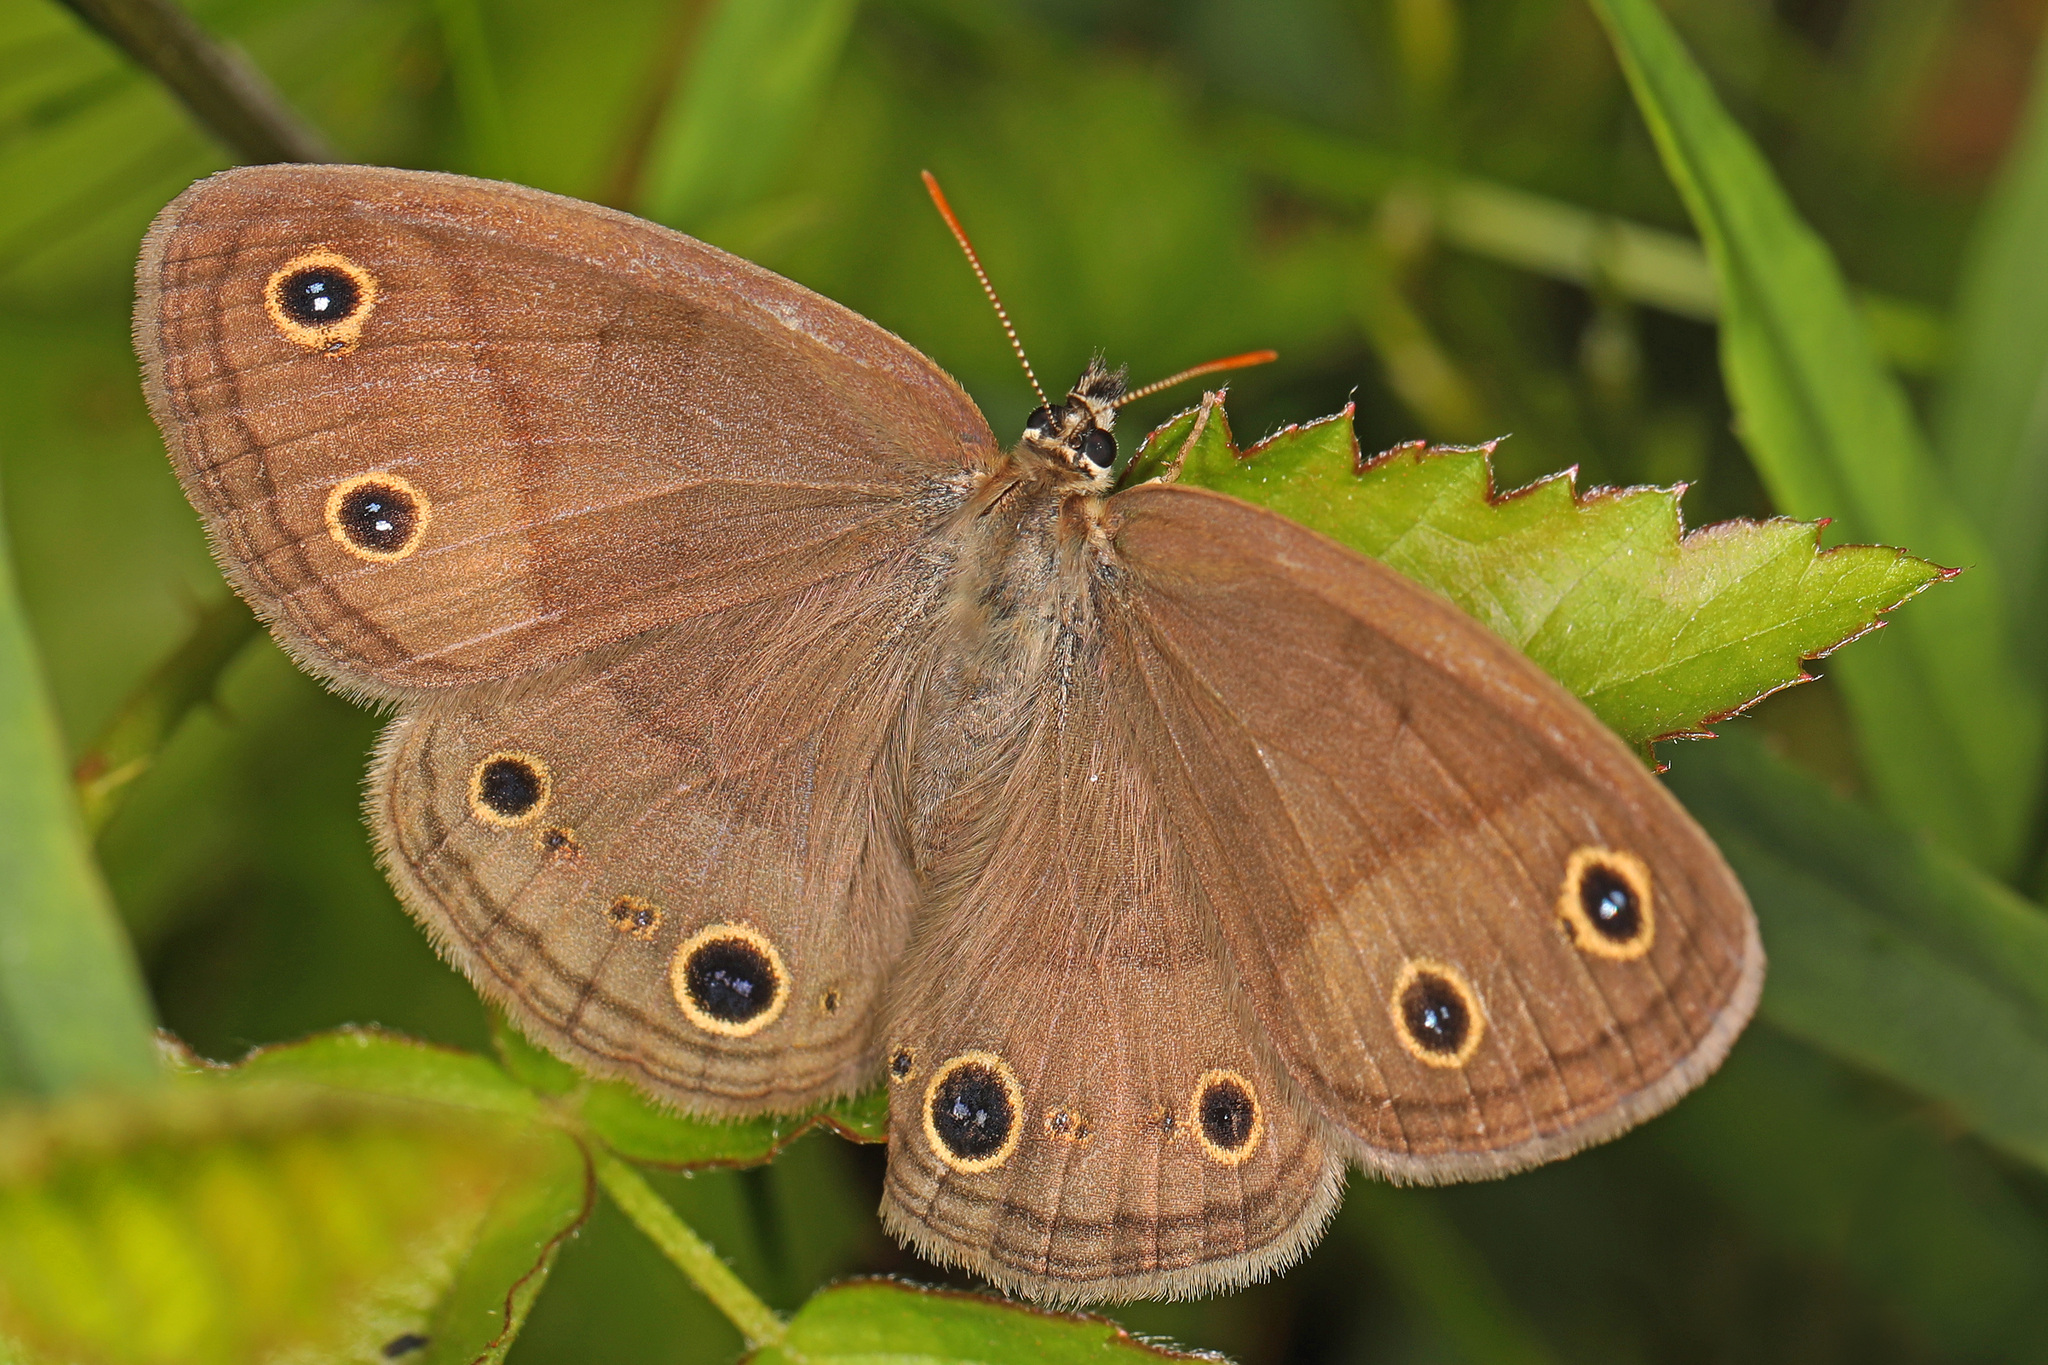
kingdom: Animalia
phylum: Arthropoda
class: Insecta
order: Lepidoptera
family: Nymphalidae
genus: Euptychia
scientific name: Euptychia cymela
